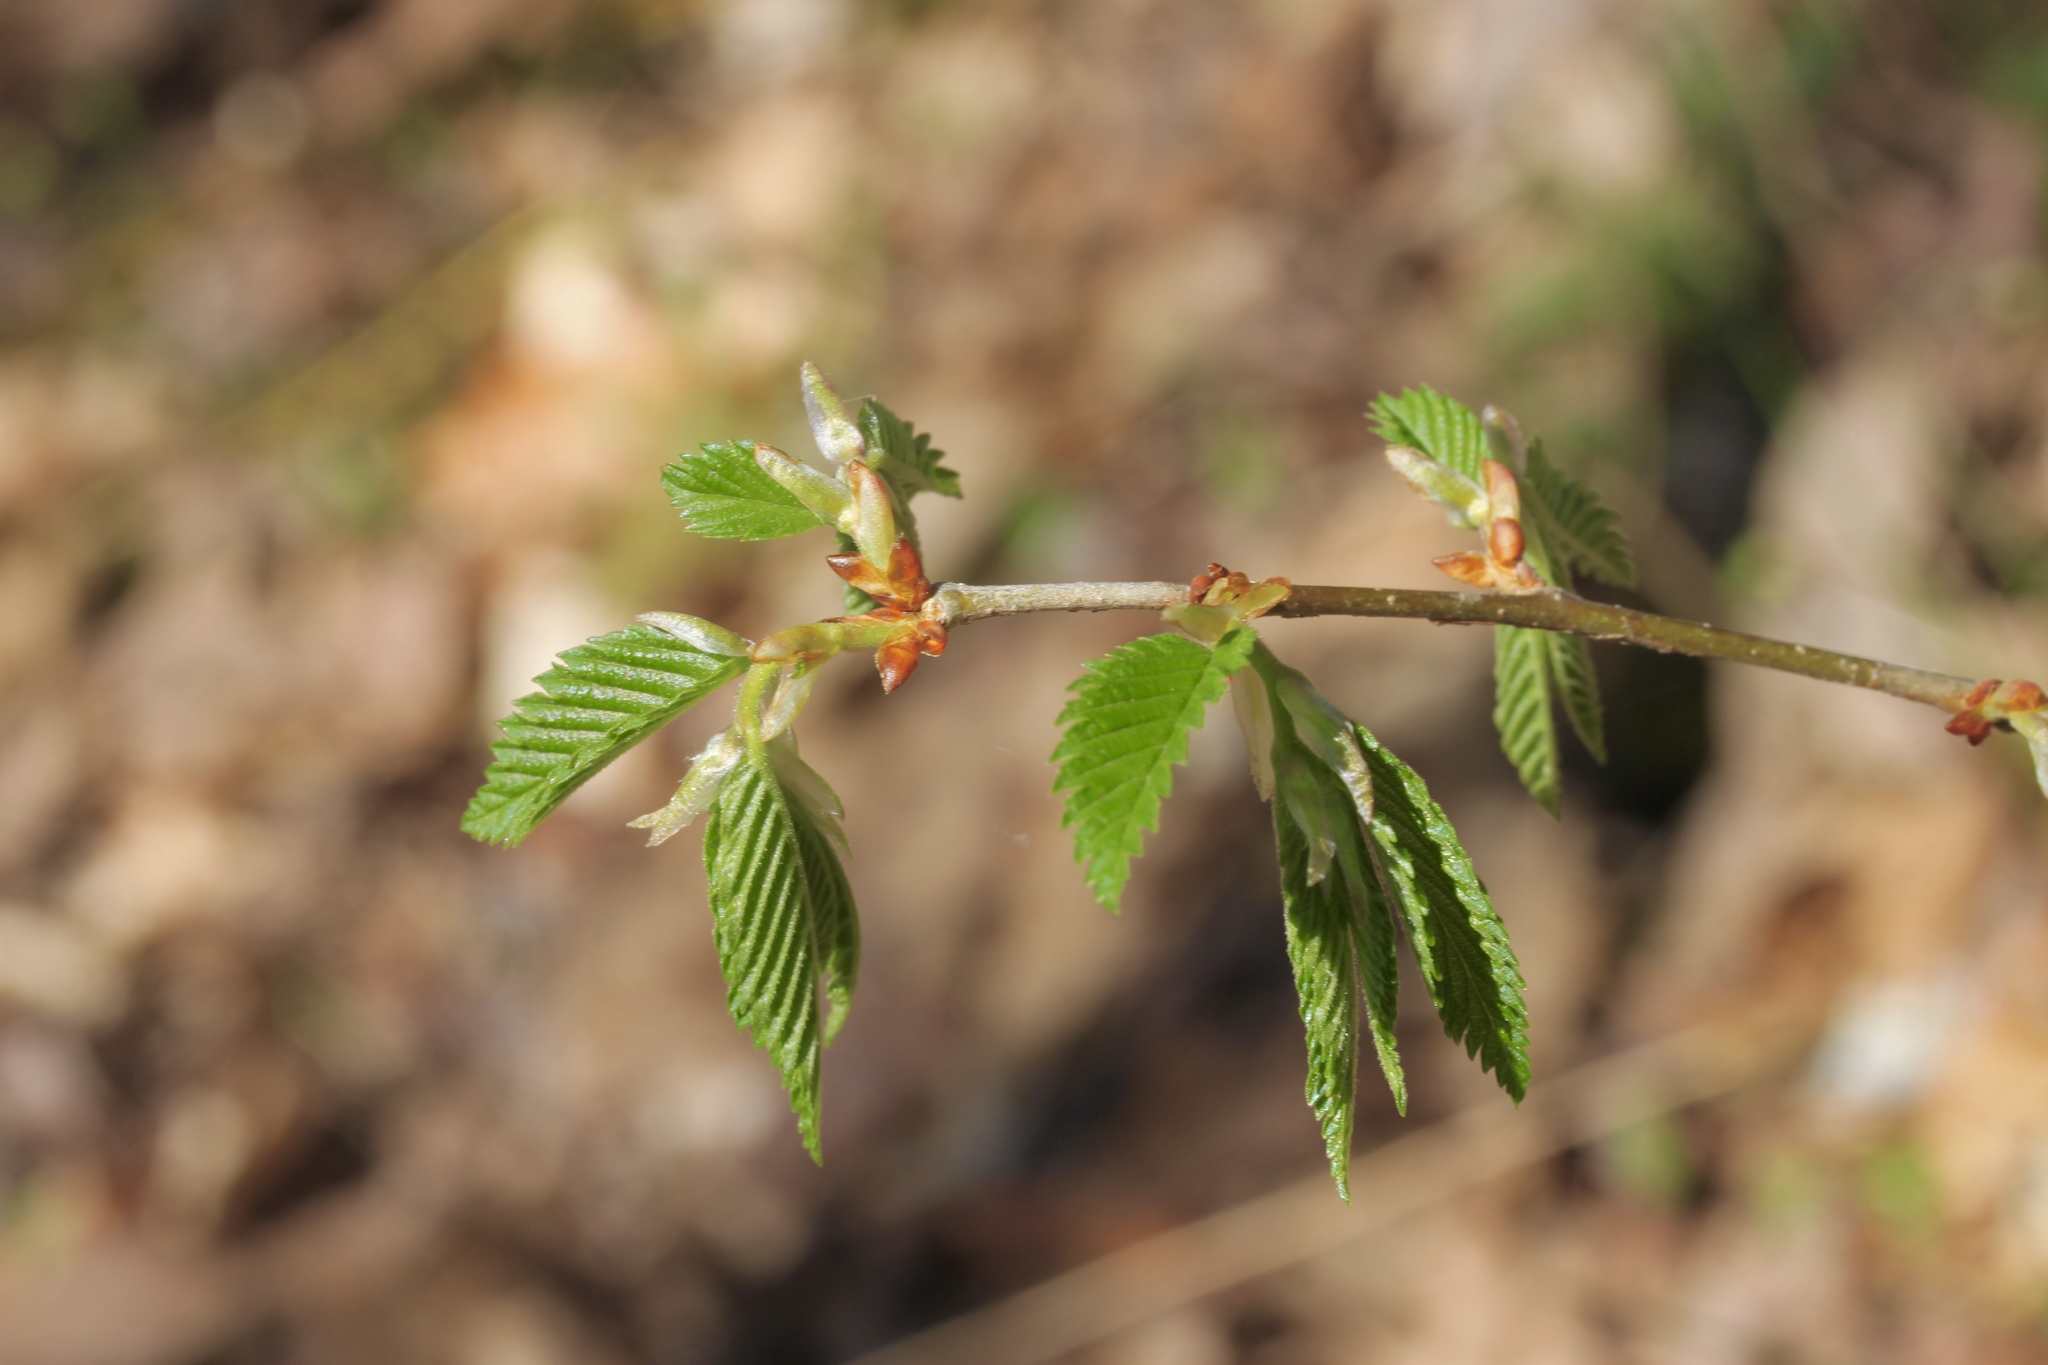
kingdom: Plantae
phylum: Tracheophyta
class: Magnoliopsida
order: Rosales
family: Ulmaceae
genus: Ulmus
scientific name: Ulmus americana
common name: American elm
